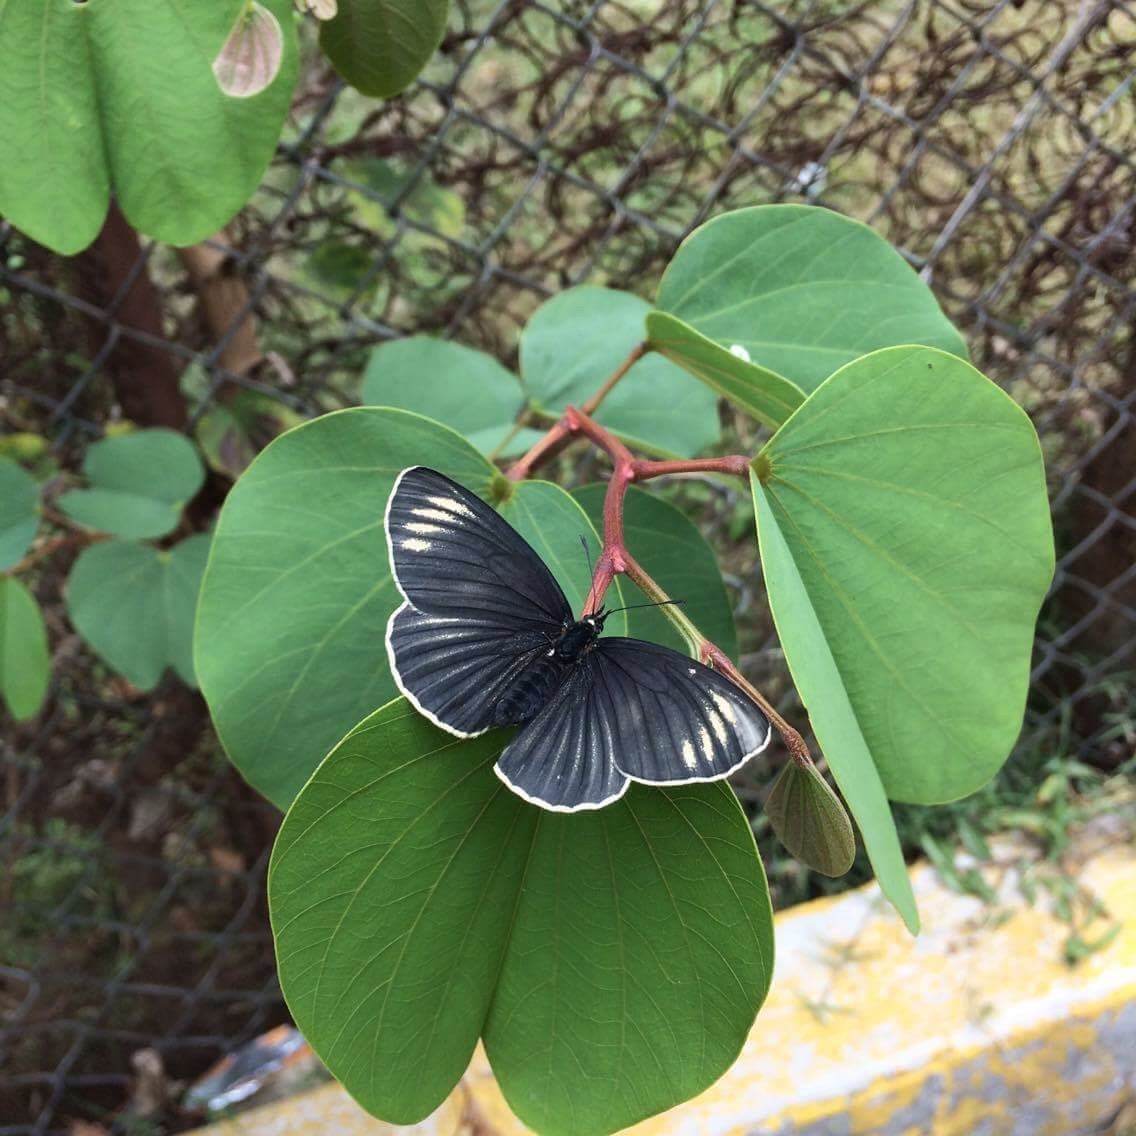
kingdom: Animalia
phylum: Arthropoda
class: Insecta
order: Lepidoptera
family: Nymphalidae
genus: Chlosyne
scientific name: Chlosyne ehrenbergii
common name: White-rayed patch
